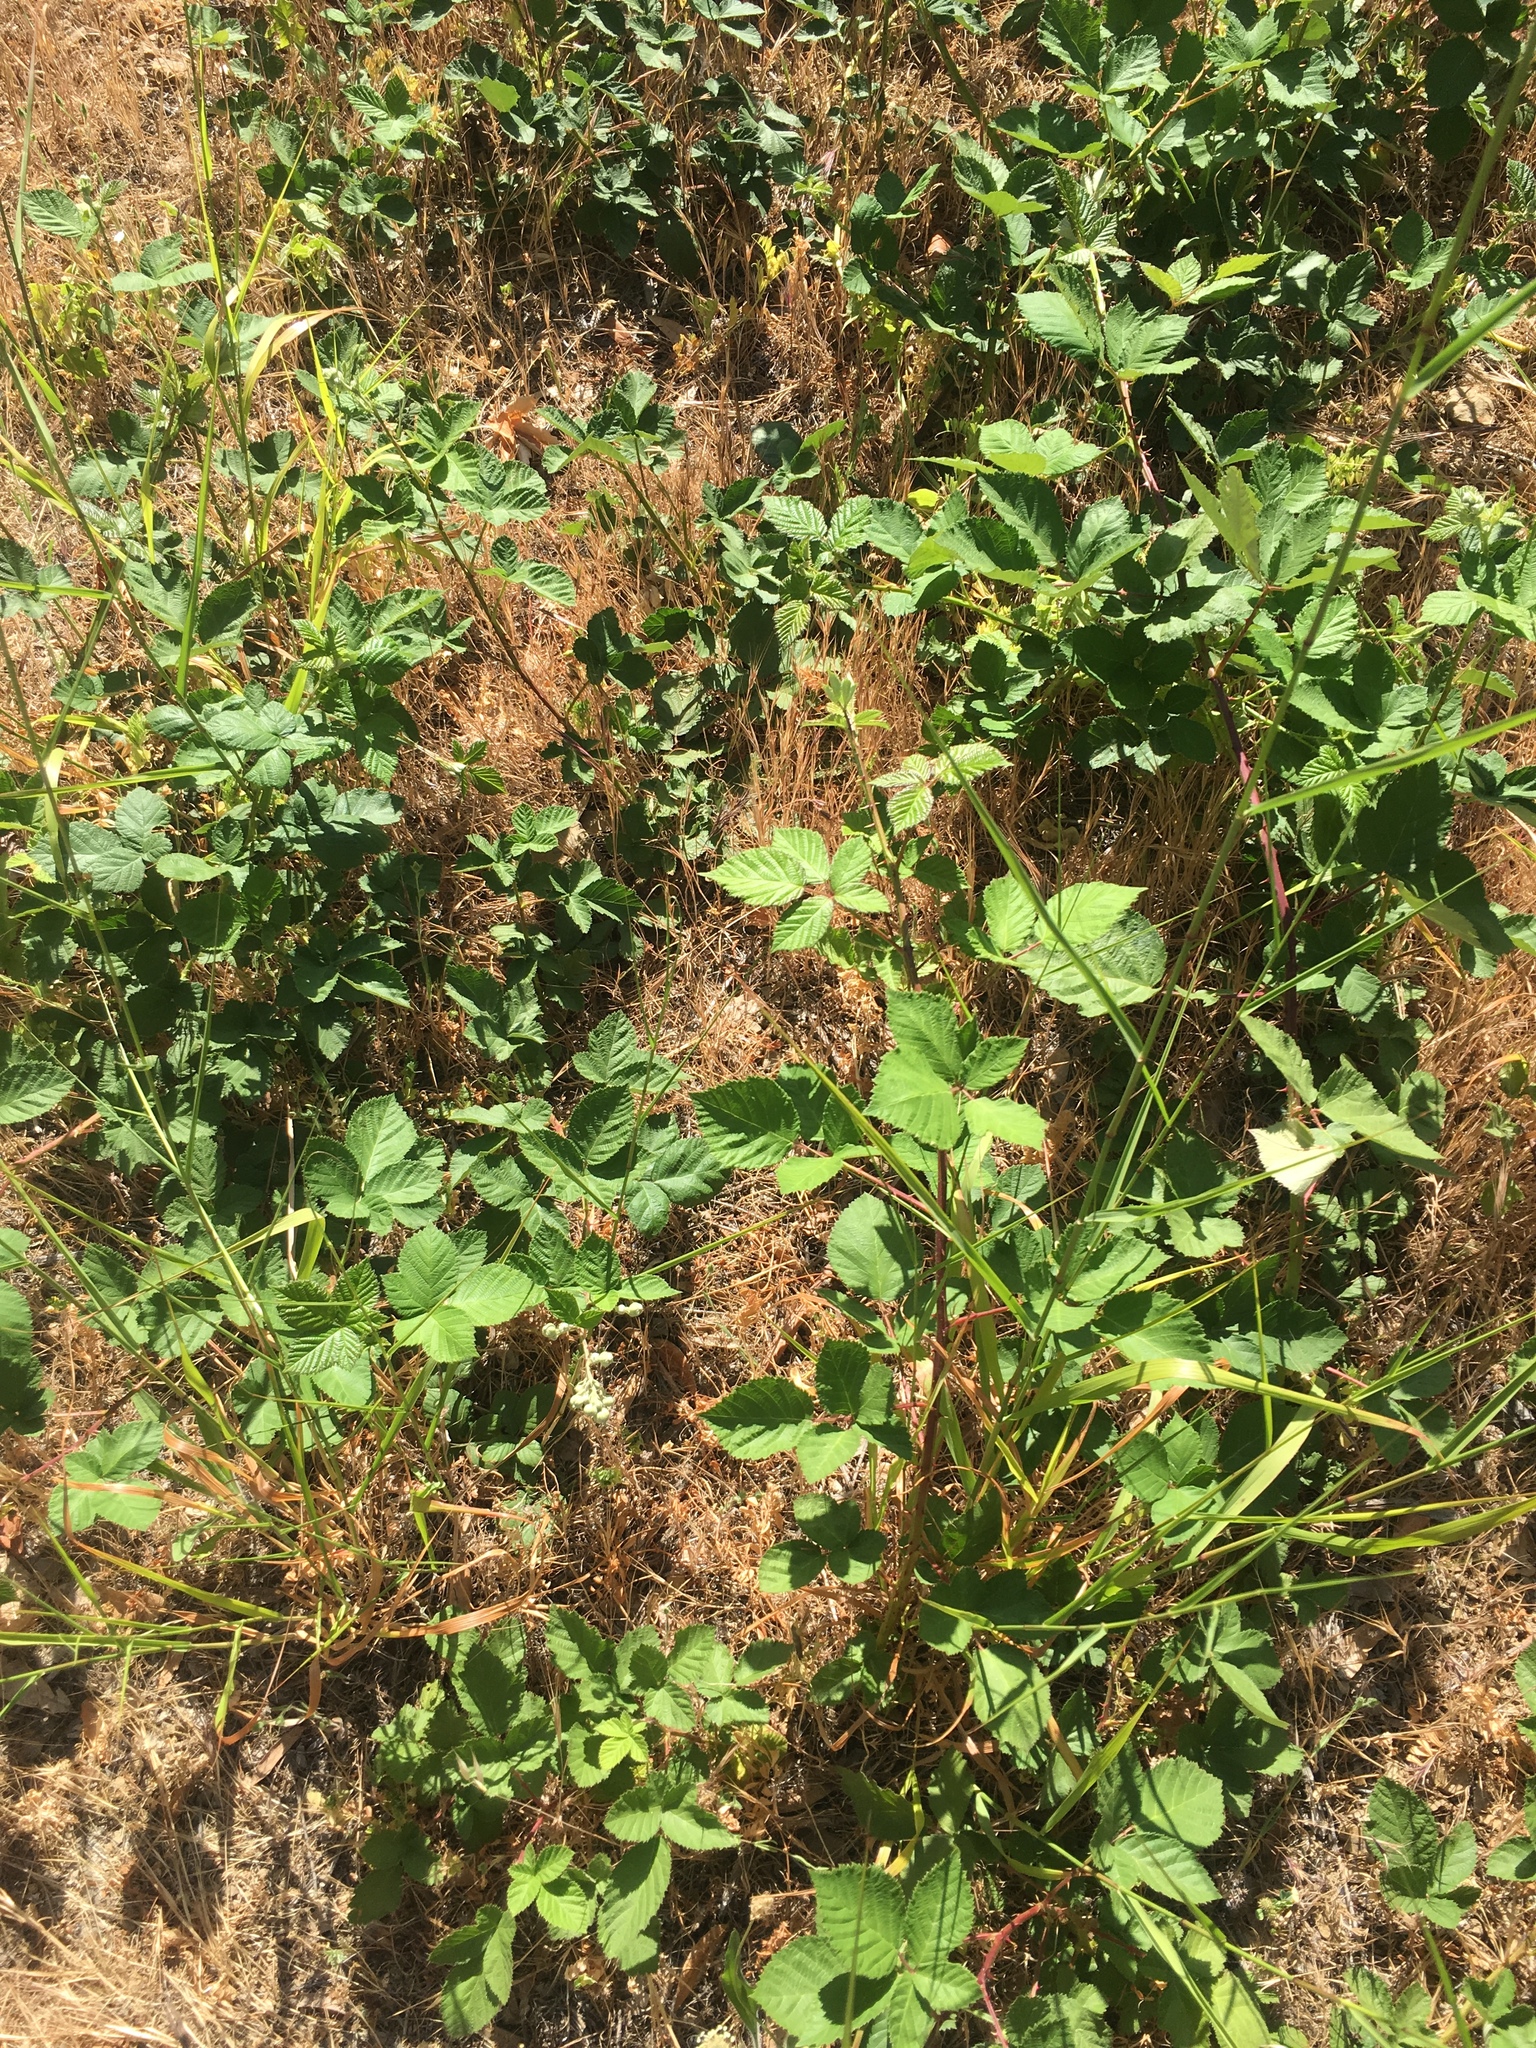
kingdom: Plantae
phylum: Tracheophyta
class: Magnoliopsida
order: Rosales
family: Rosaceae
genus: Rubus
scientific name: Rubus armeniacus
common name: Himalayan blackberry
